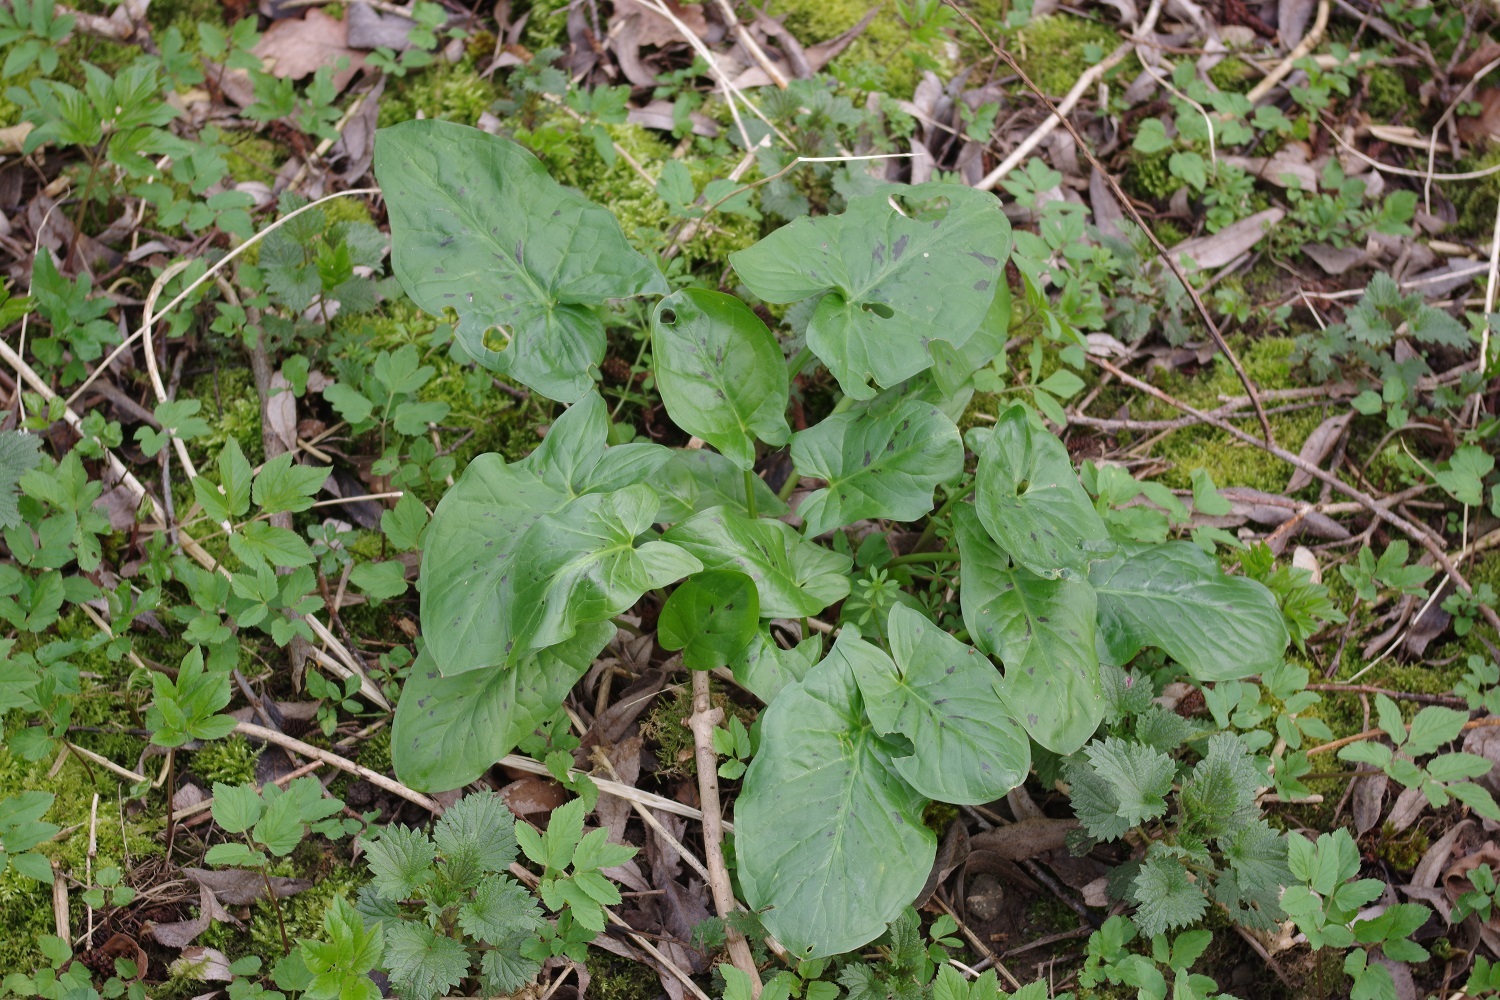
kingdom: Plantae
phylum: Tracheophyta
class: Liliopsida
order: Alismatales
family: Araceae
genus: Arum
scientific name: Arum maculatum
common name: Lords-and-ladies
